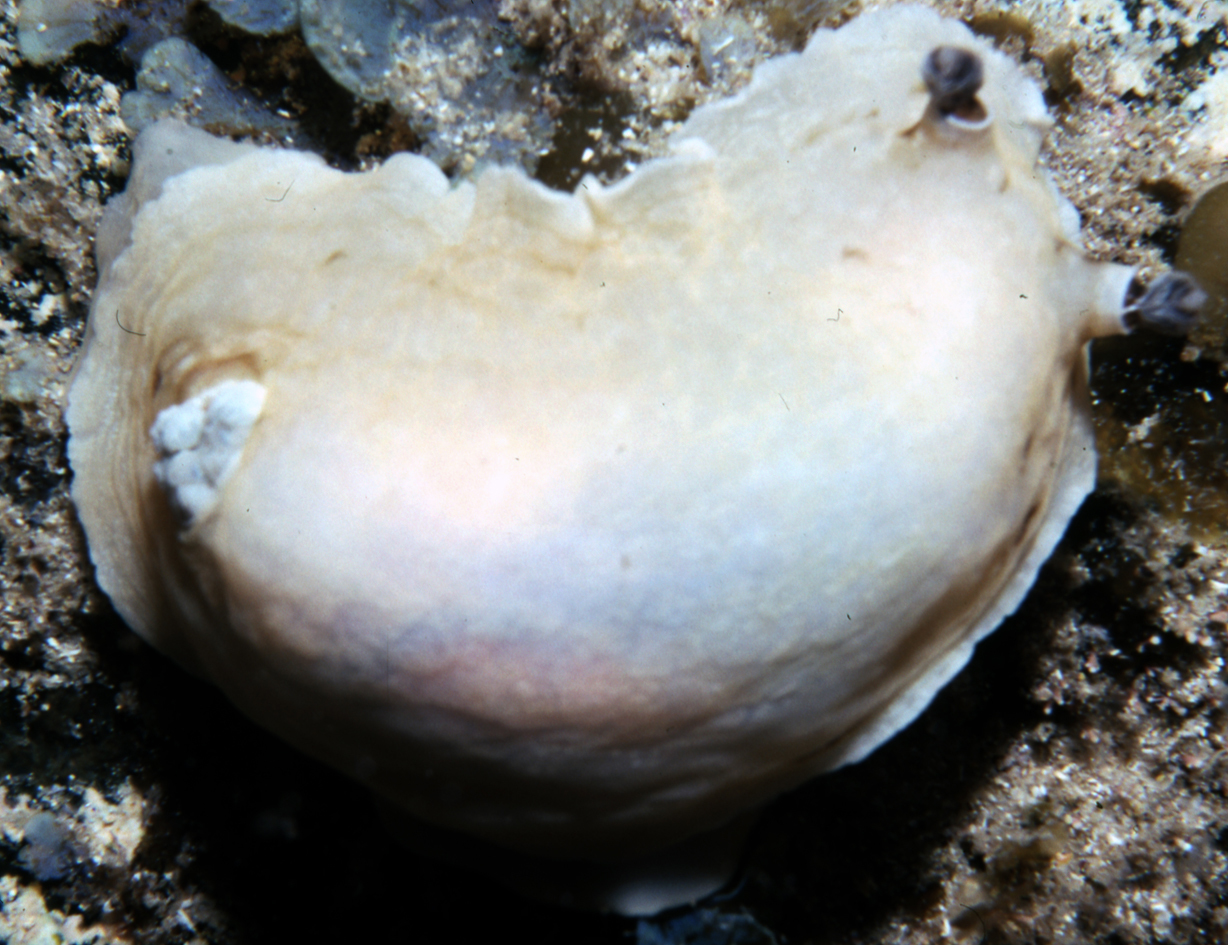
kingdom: Animalia
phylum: Mollusca
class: Gastropoda
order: Nudibranchia
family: Dorididae
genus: Aphelodoris
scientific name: Aphelodoris varia
